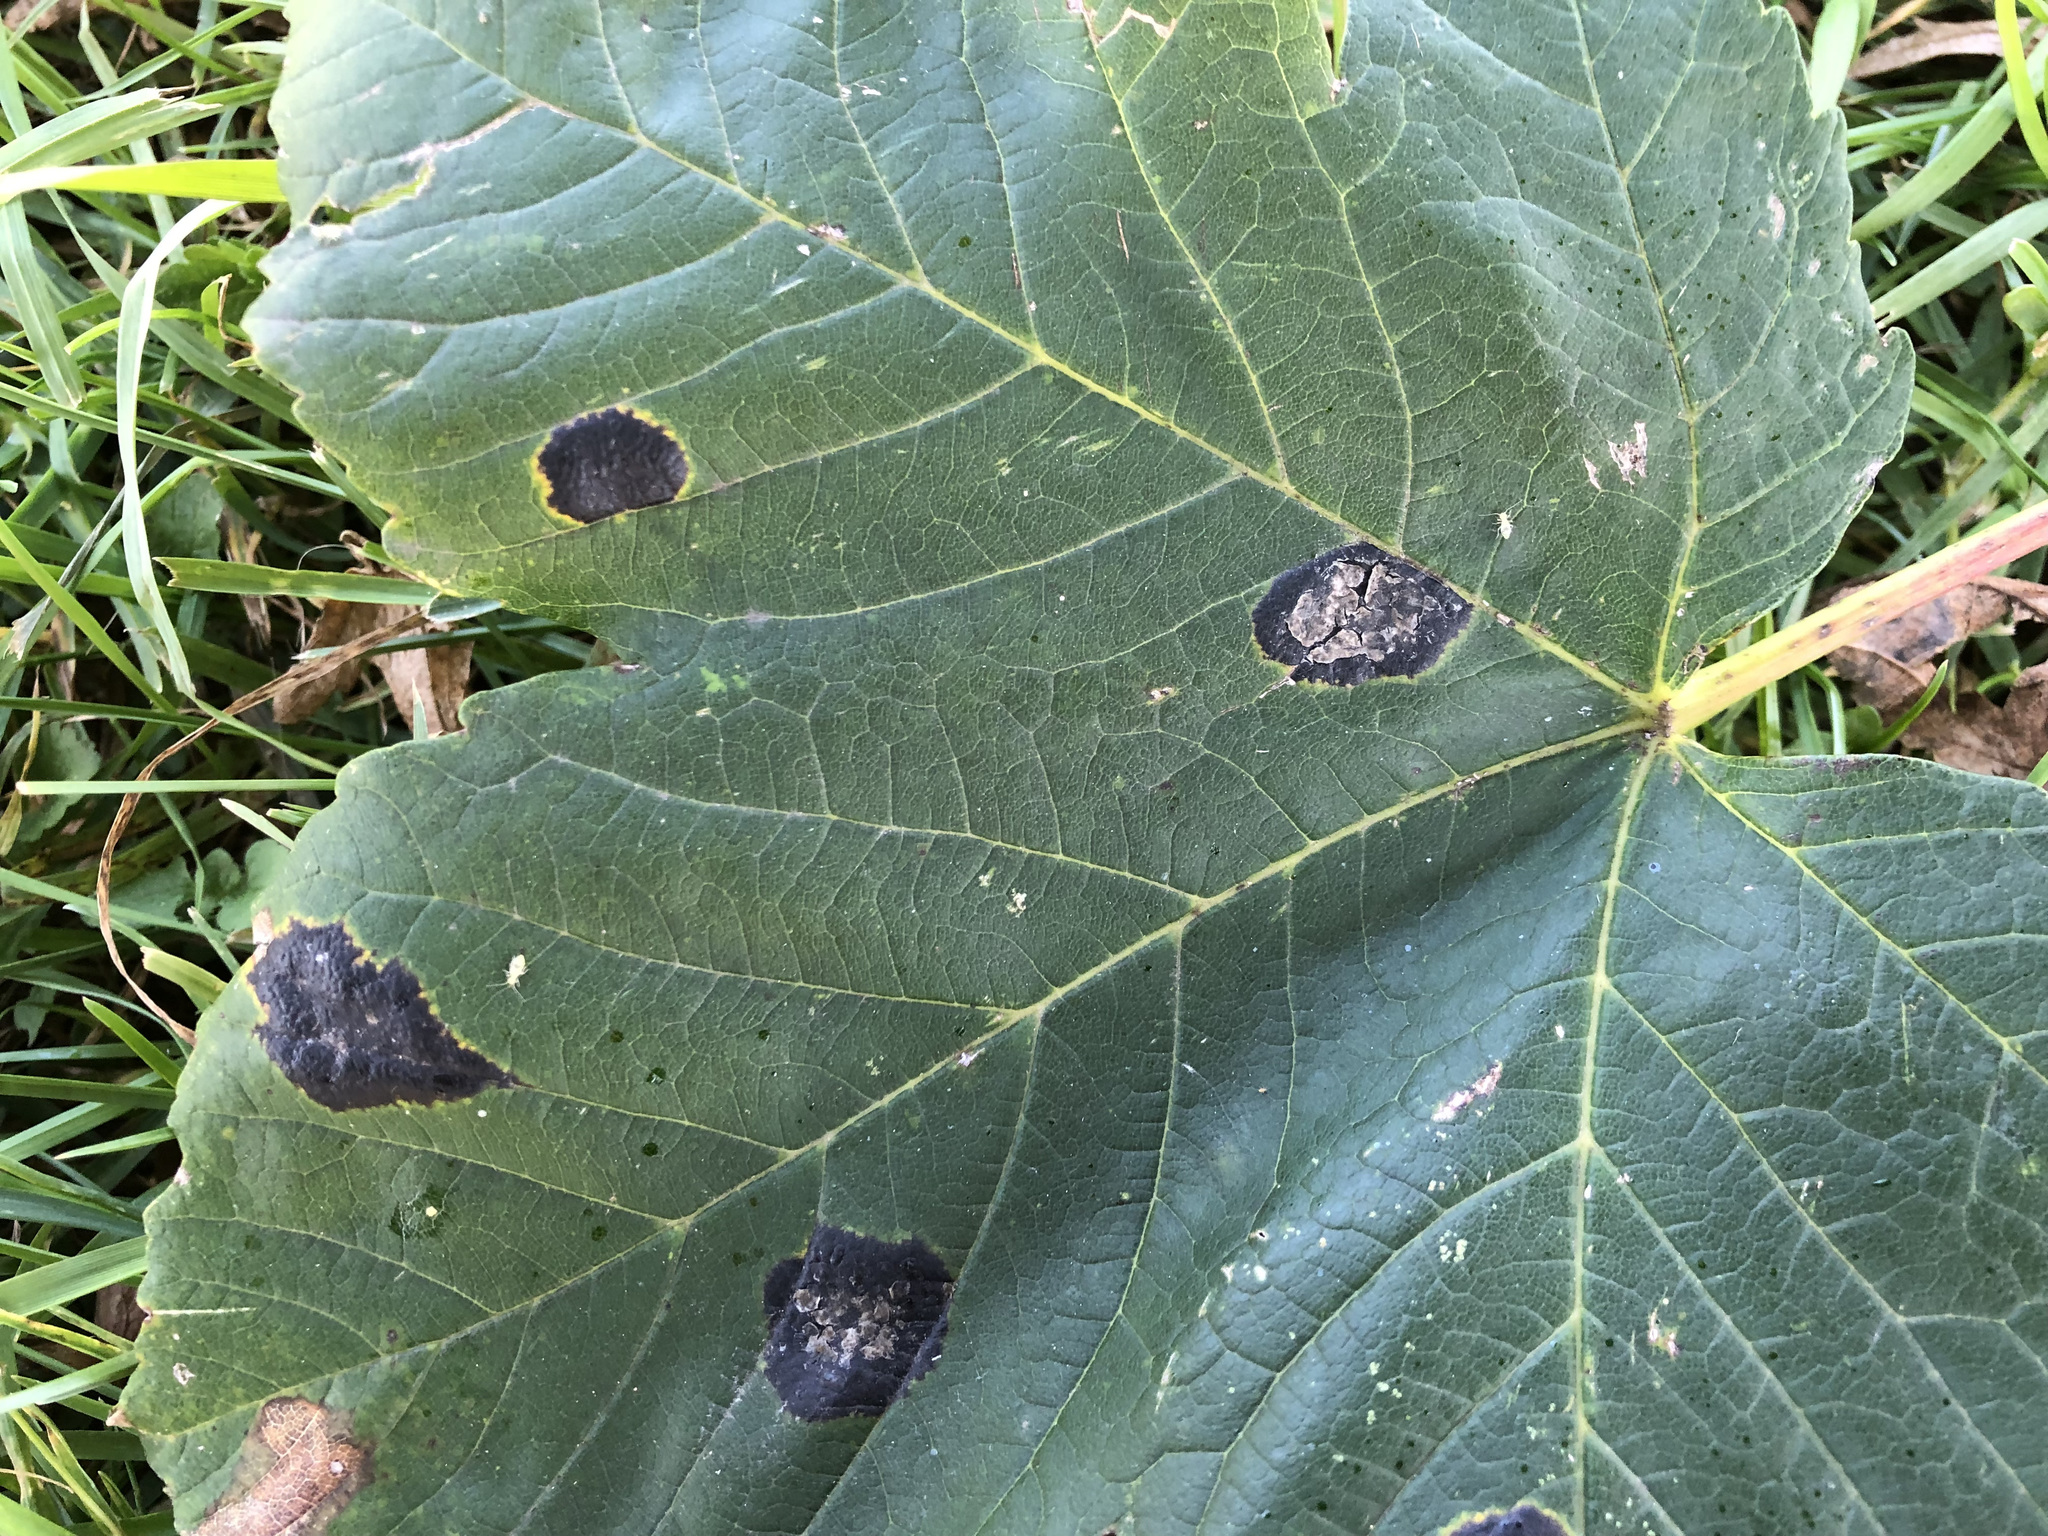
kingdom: Fungi
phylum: Ascomycota
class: Leotiomycetes
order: Rhytismatales
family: Rhytismataceae
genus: Rhytisma
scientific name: Rhytisma acerinum
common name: European tar spot
